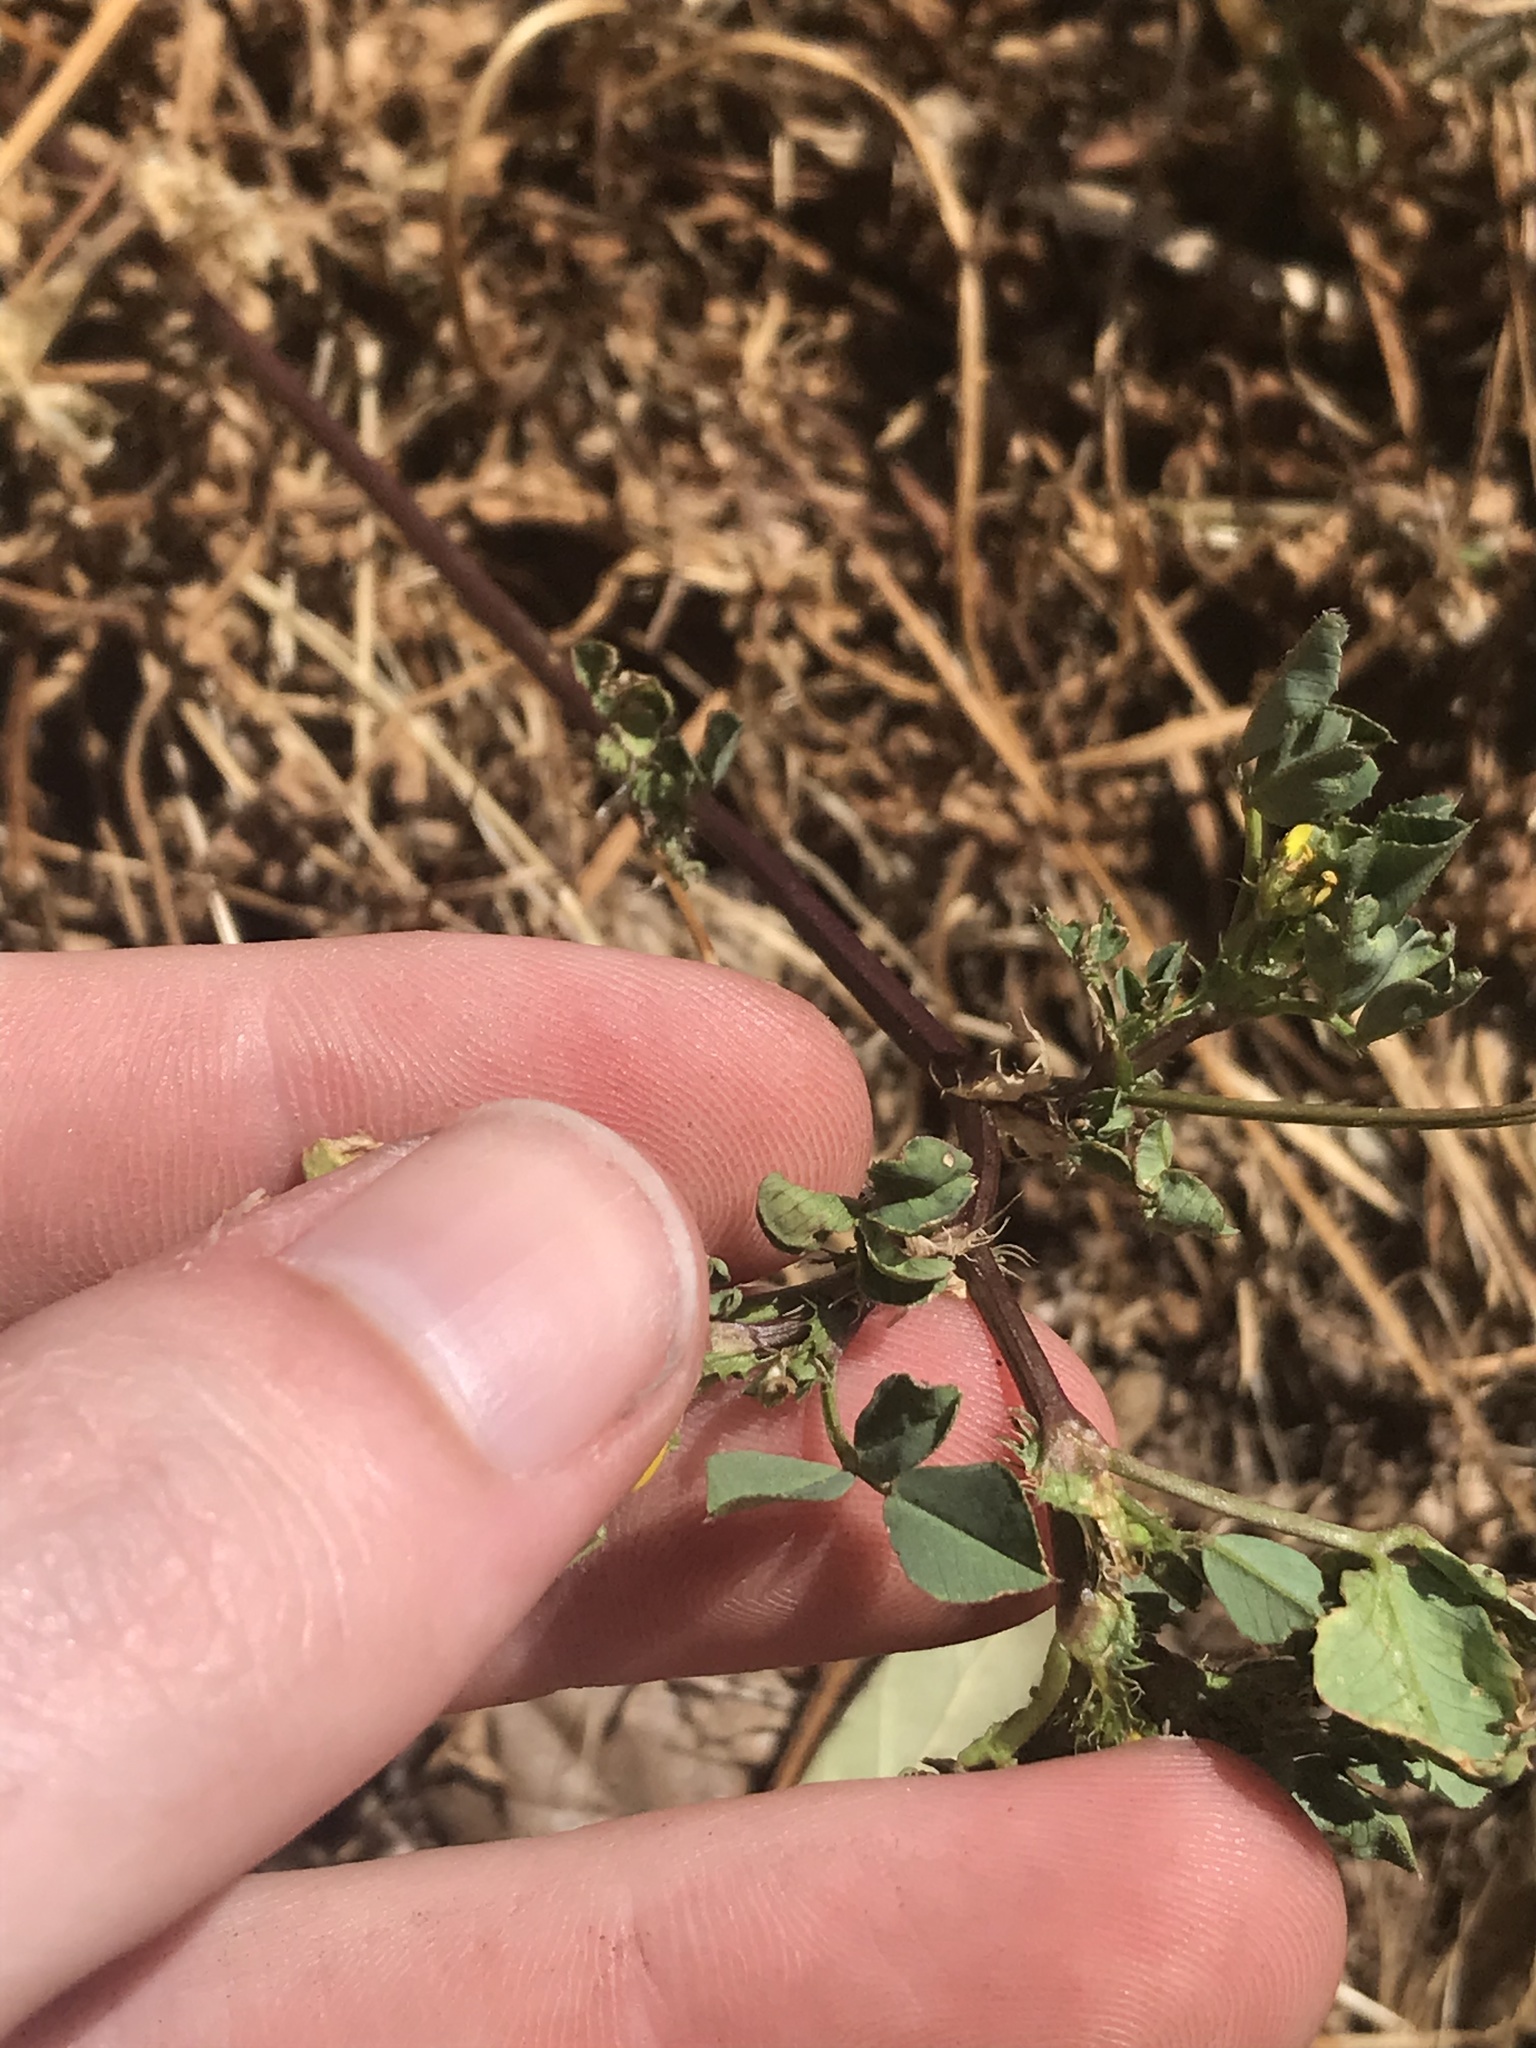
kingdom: Plantae
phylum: Tracheophyta
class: Magnoliopsida
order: Fabales
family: Fabaceae
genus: Medicago
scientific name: Medicago polymorpha
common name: Burclover
